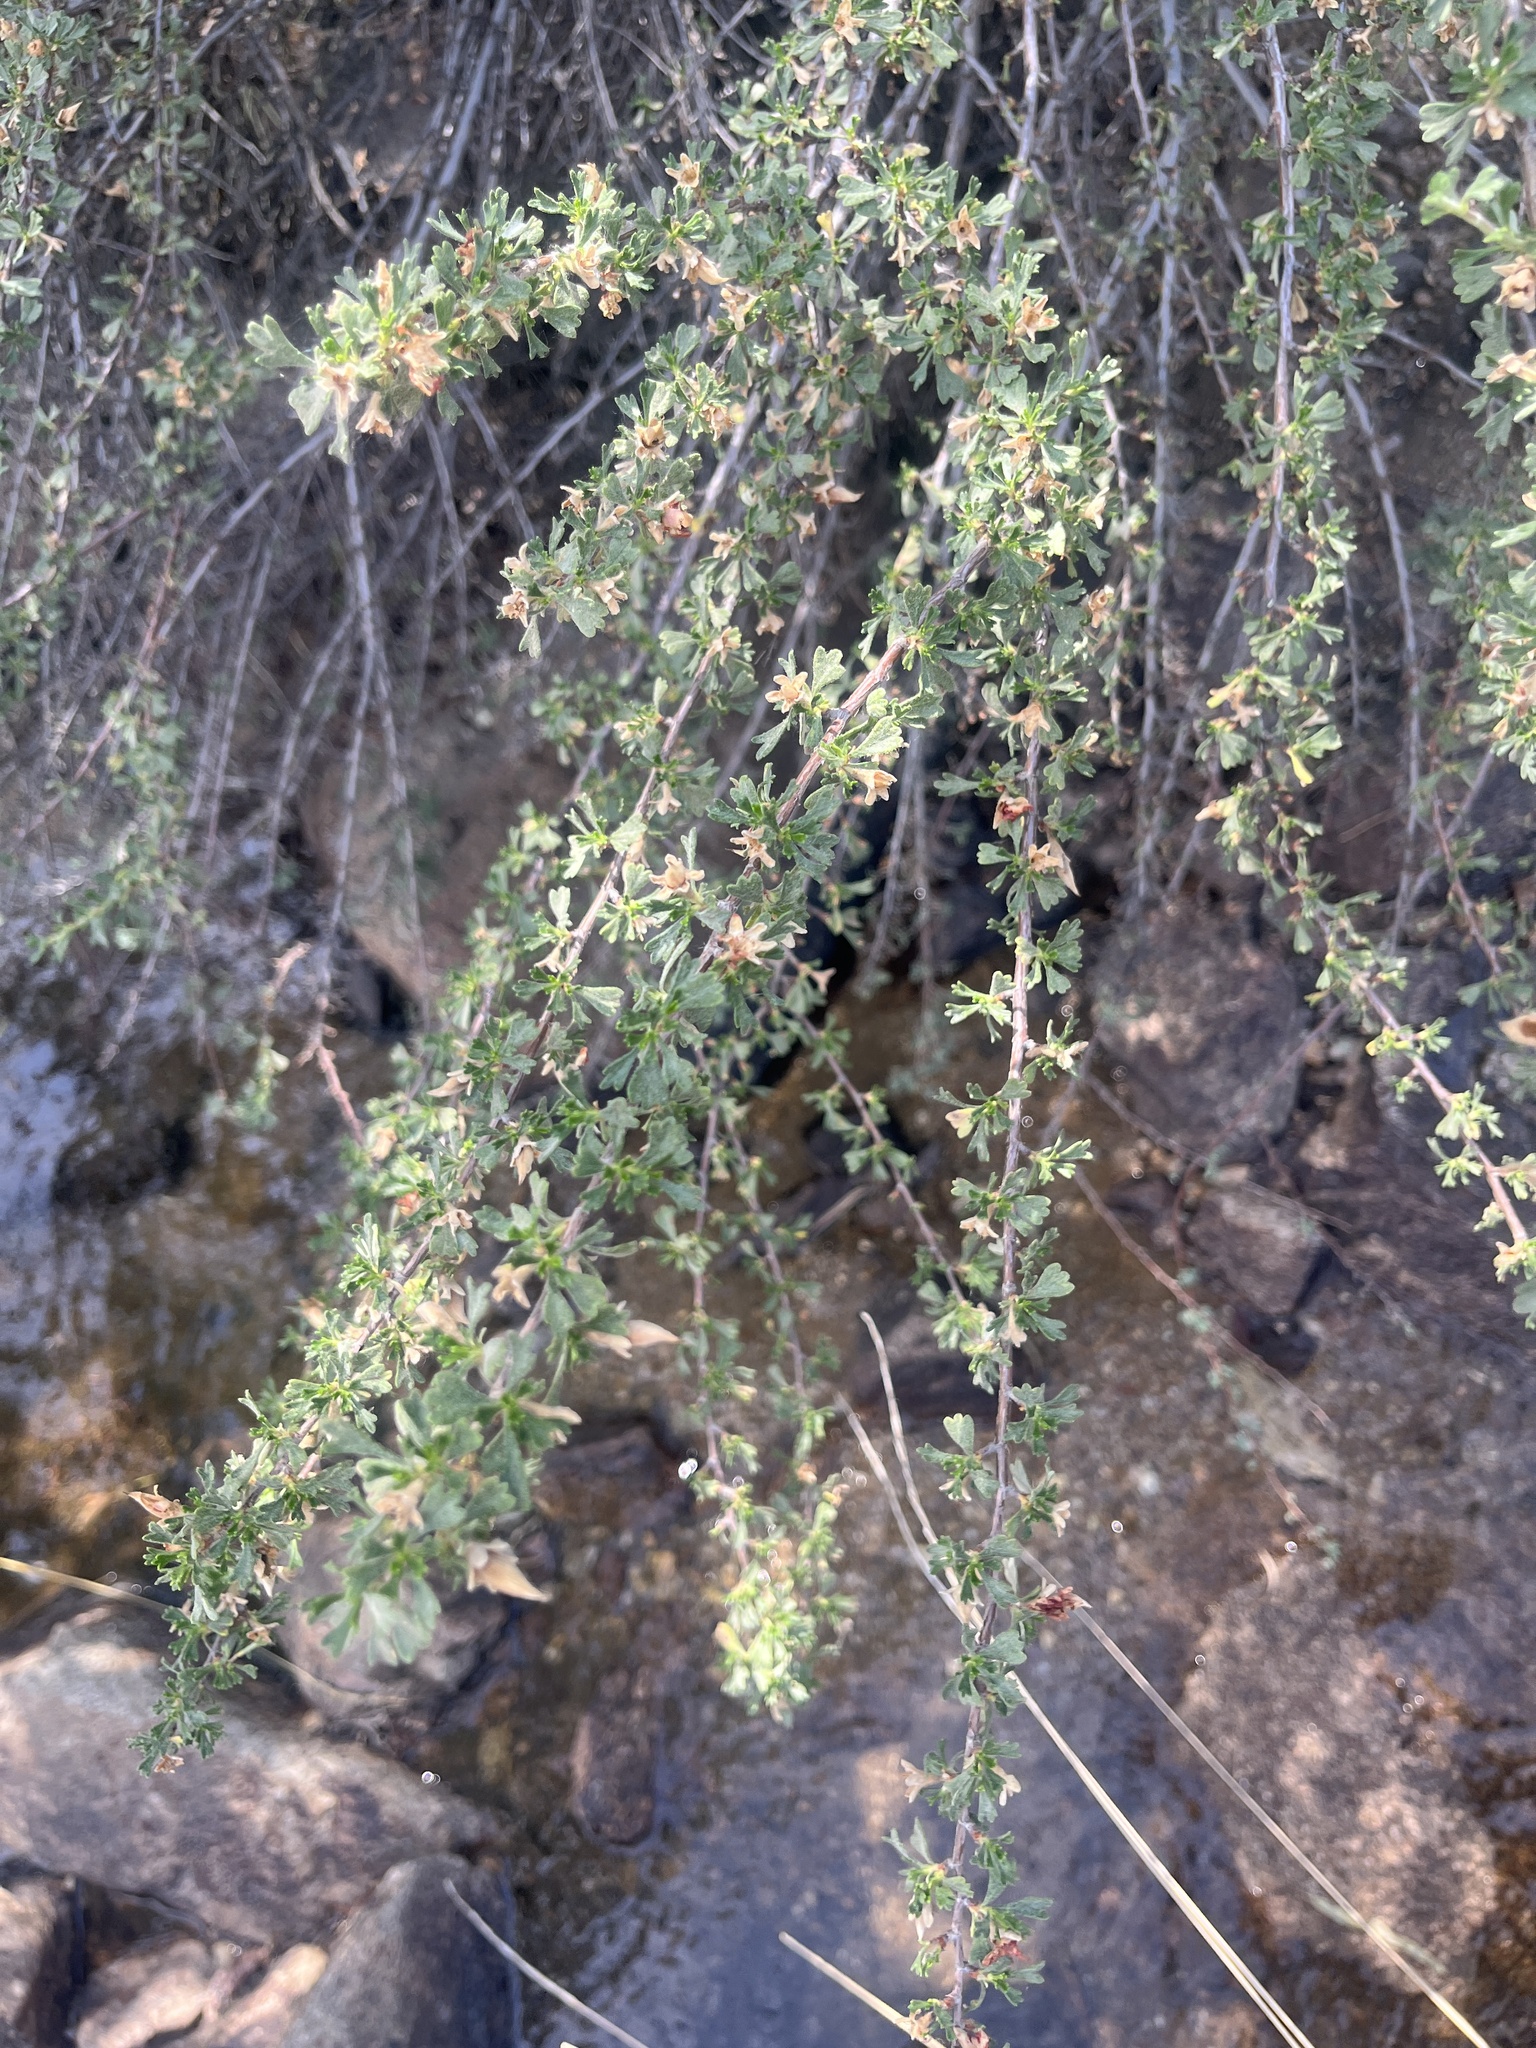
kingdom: Plantae
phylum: Tracheophyta
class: Magnoliopsida
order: Rosales
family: Rosaceae
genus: Purshia
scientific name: Purshia tridentata
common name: Antelope bitterbrush
